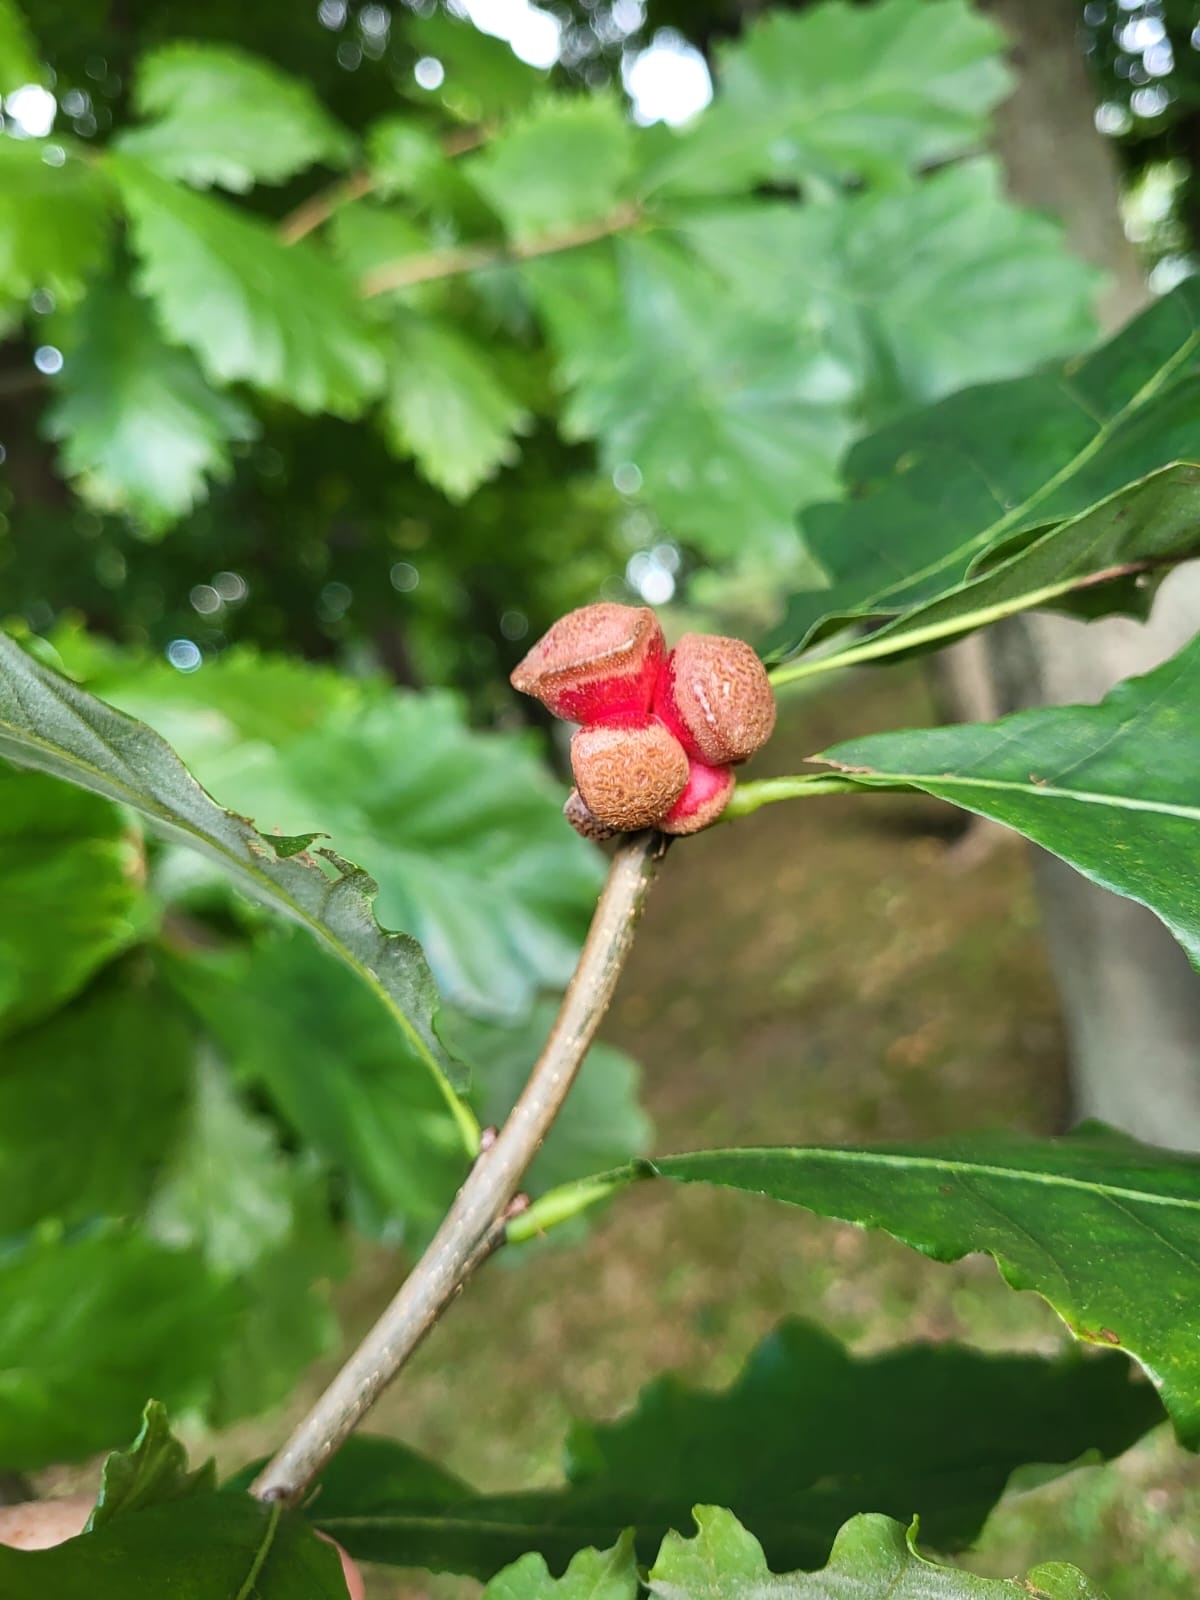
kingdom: Animalia
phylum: Arthropoda
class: Insecta
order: Hymenoptera
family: Cynipidae
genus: Andricus
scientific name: Andricus
